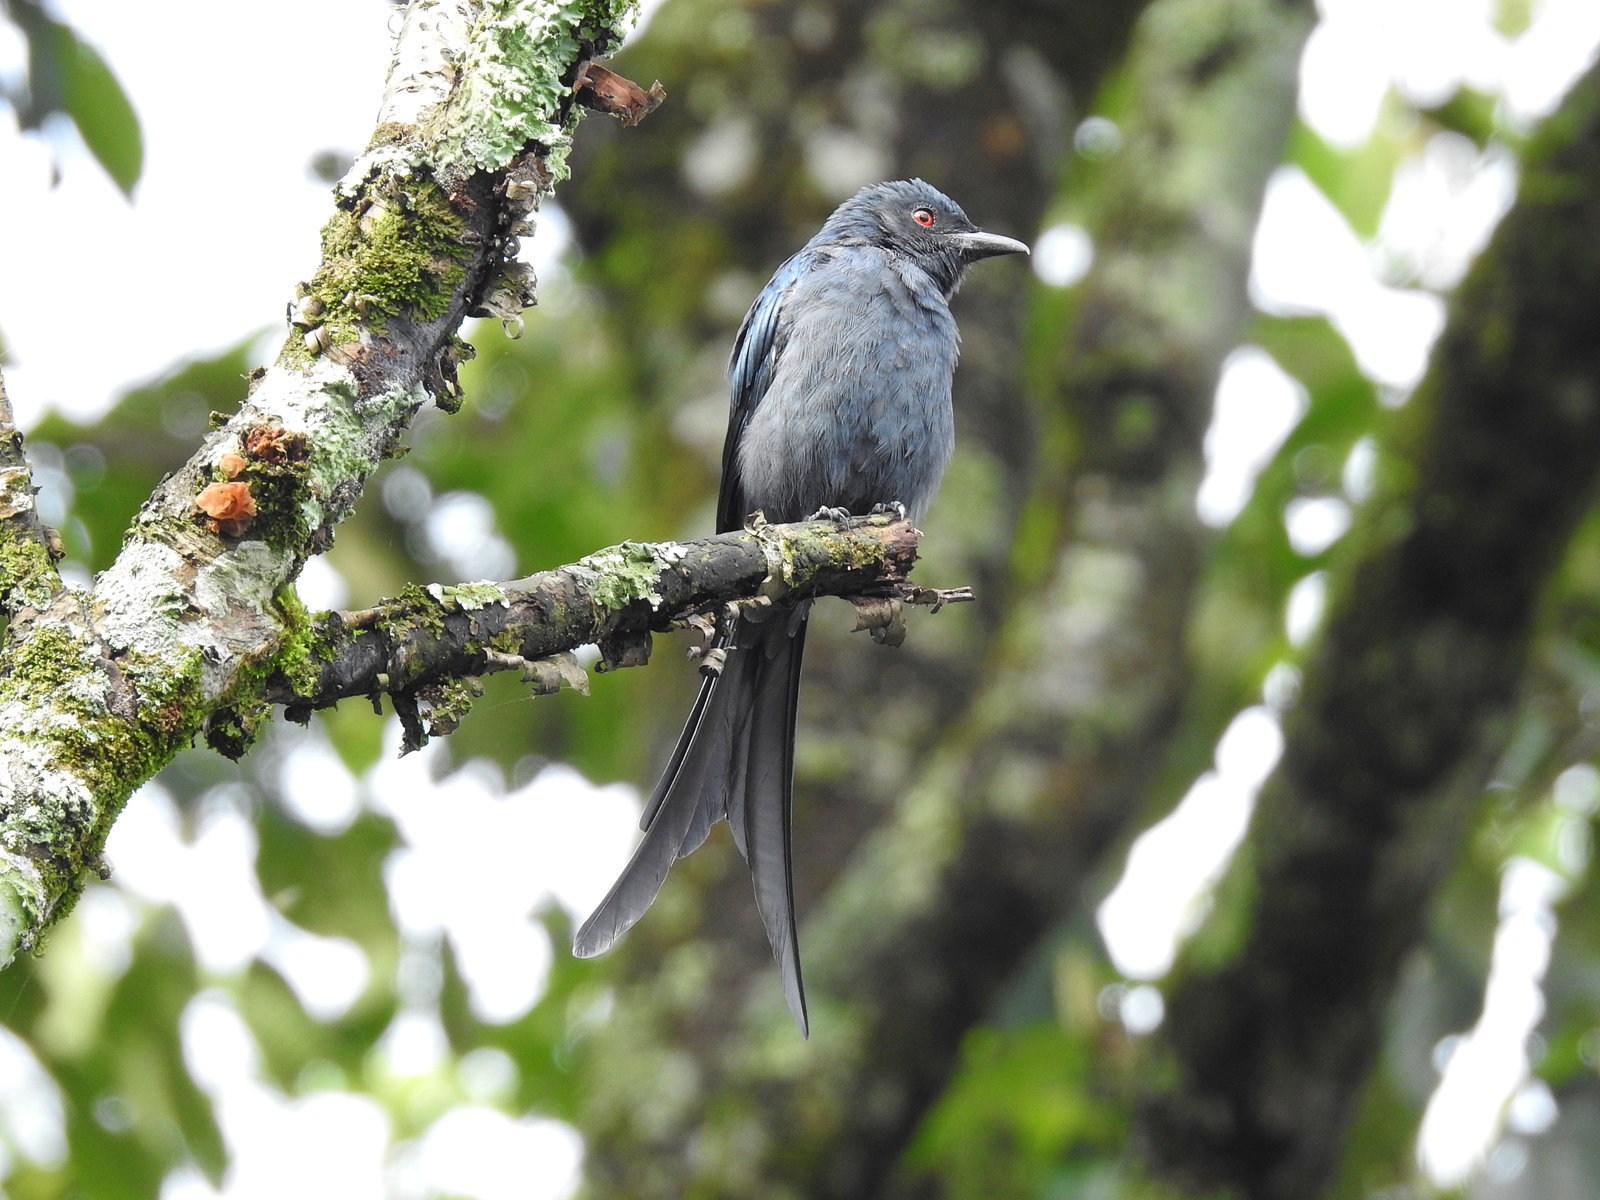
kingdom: Animalia
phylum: Chordata
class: Aves
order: Passeriformes
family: Dicruridae
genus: Dicrurus
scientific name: Dicrurus leucophaeus
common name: Ashy drongo
